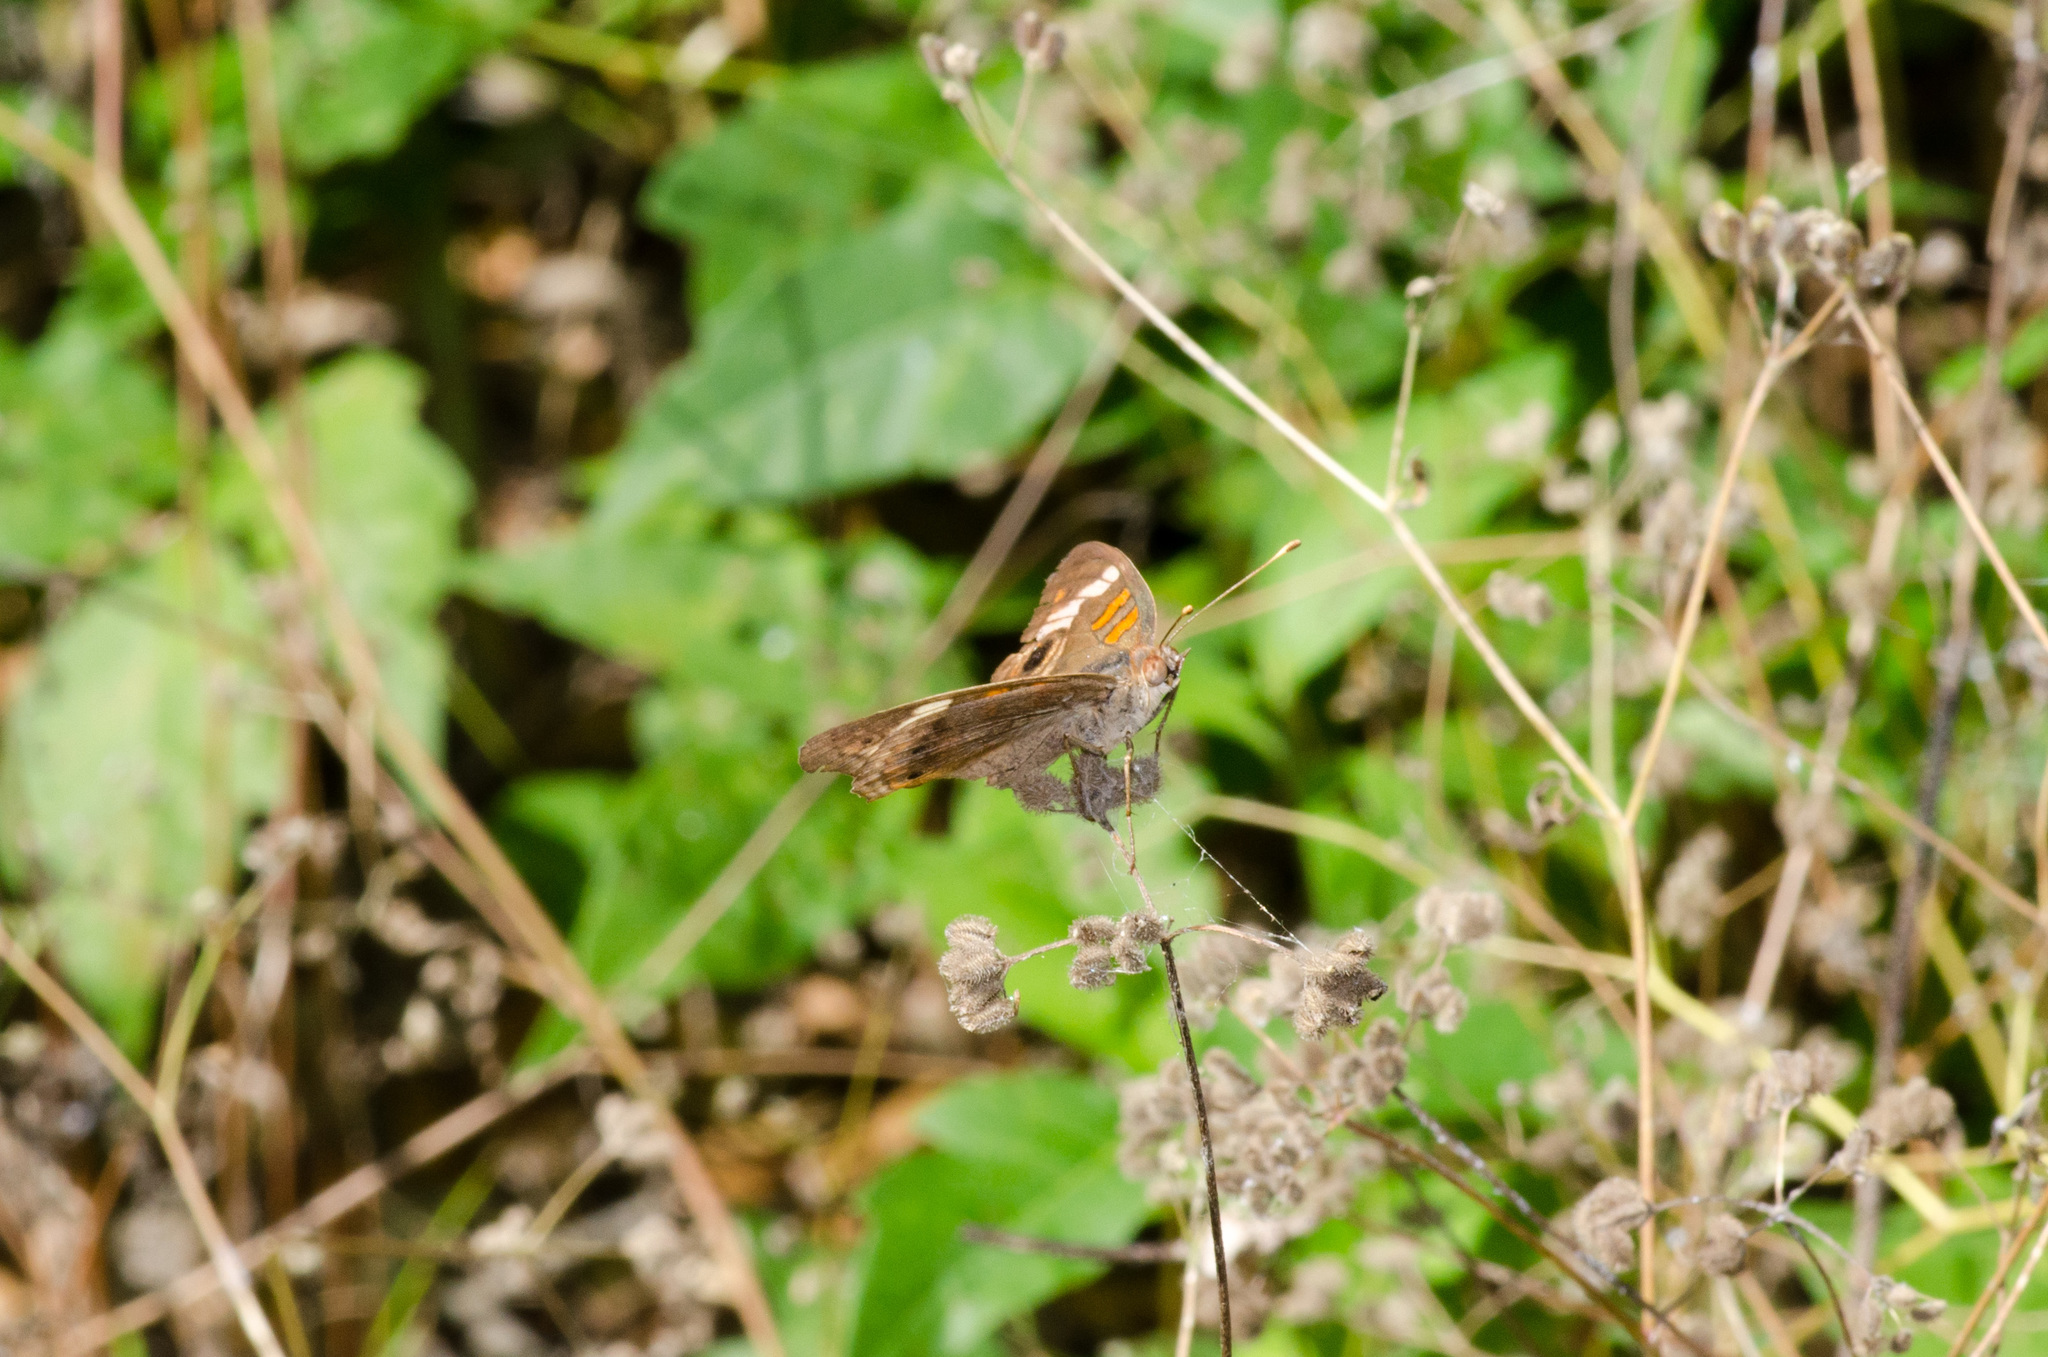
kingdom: Animalia
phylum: Arthropoda
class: Insecta
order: Lepidoptera
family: Nymphalidae
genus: Junonia
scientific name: Junonia coenia
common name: Common buckeye
